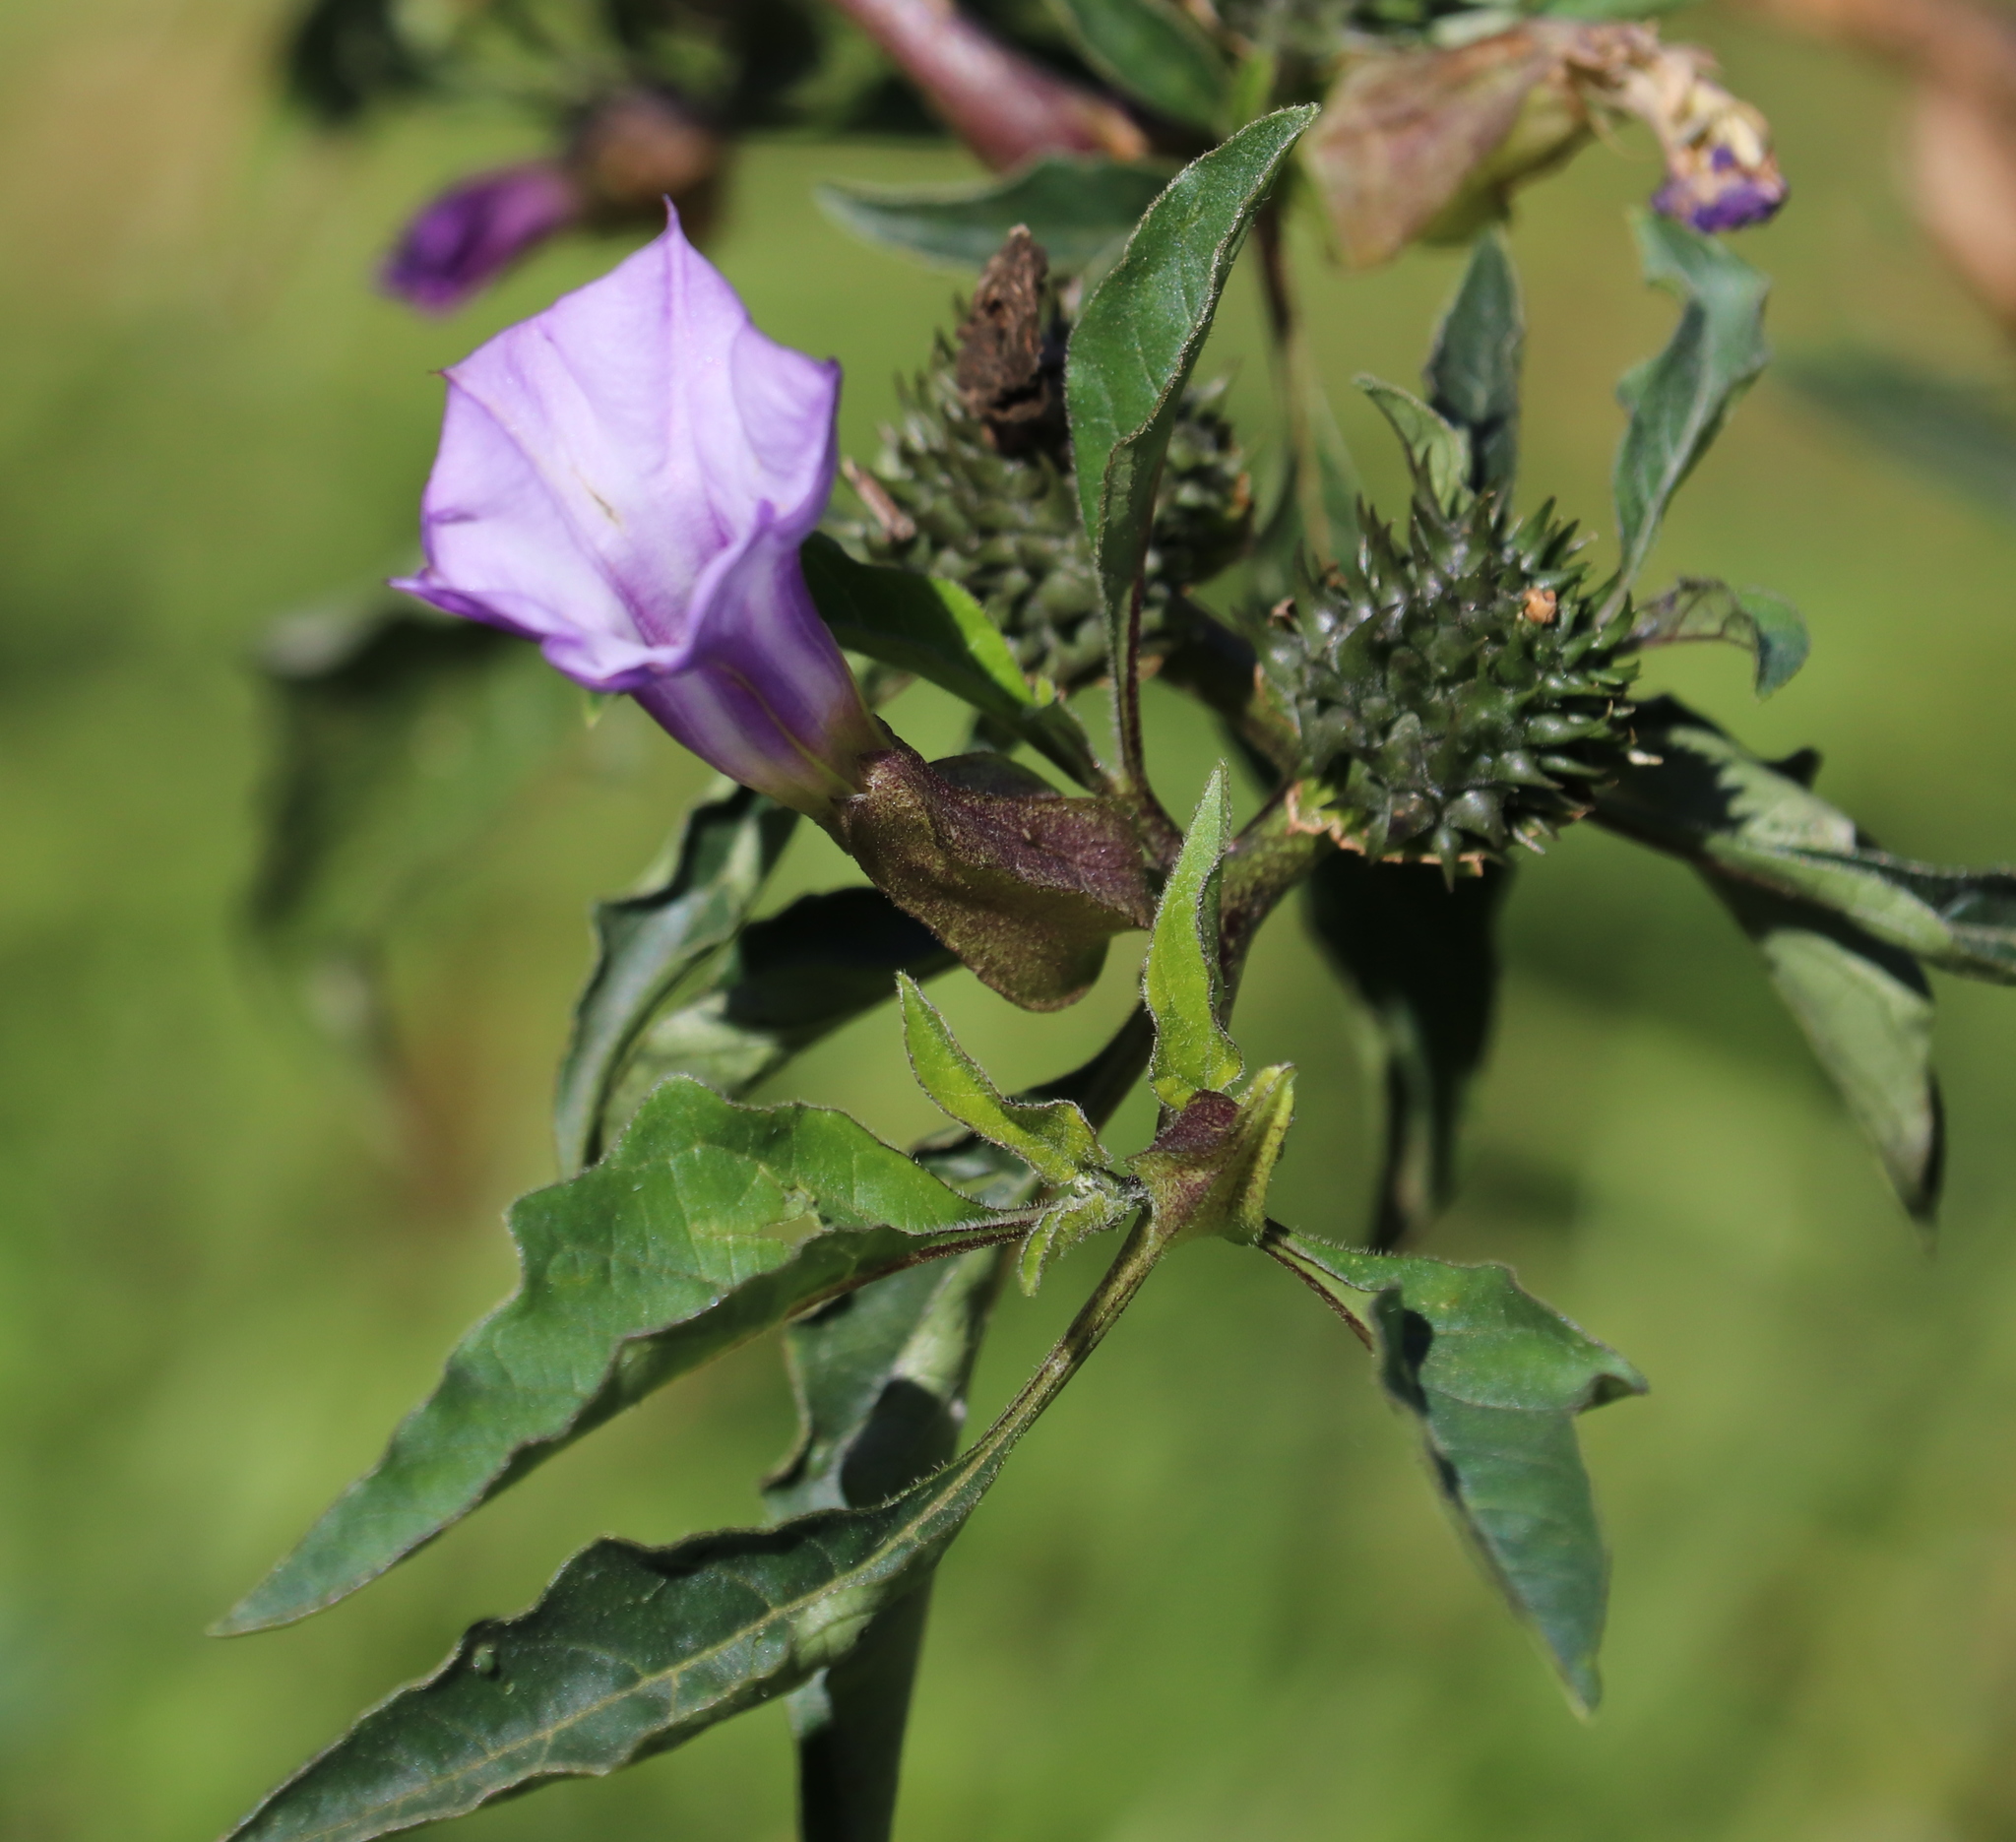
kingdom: Plantae
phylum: Tracheophyta
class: Magnoliopsida
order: Solanales
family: Solanaceae
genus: Datura
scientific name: Datura stramonium
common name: Thorn-apple
